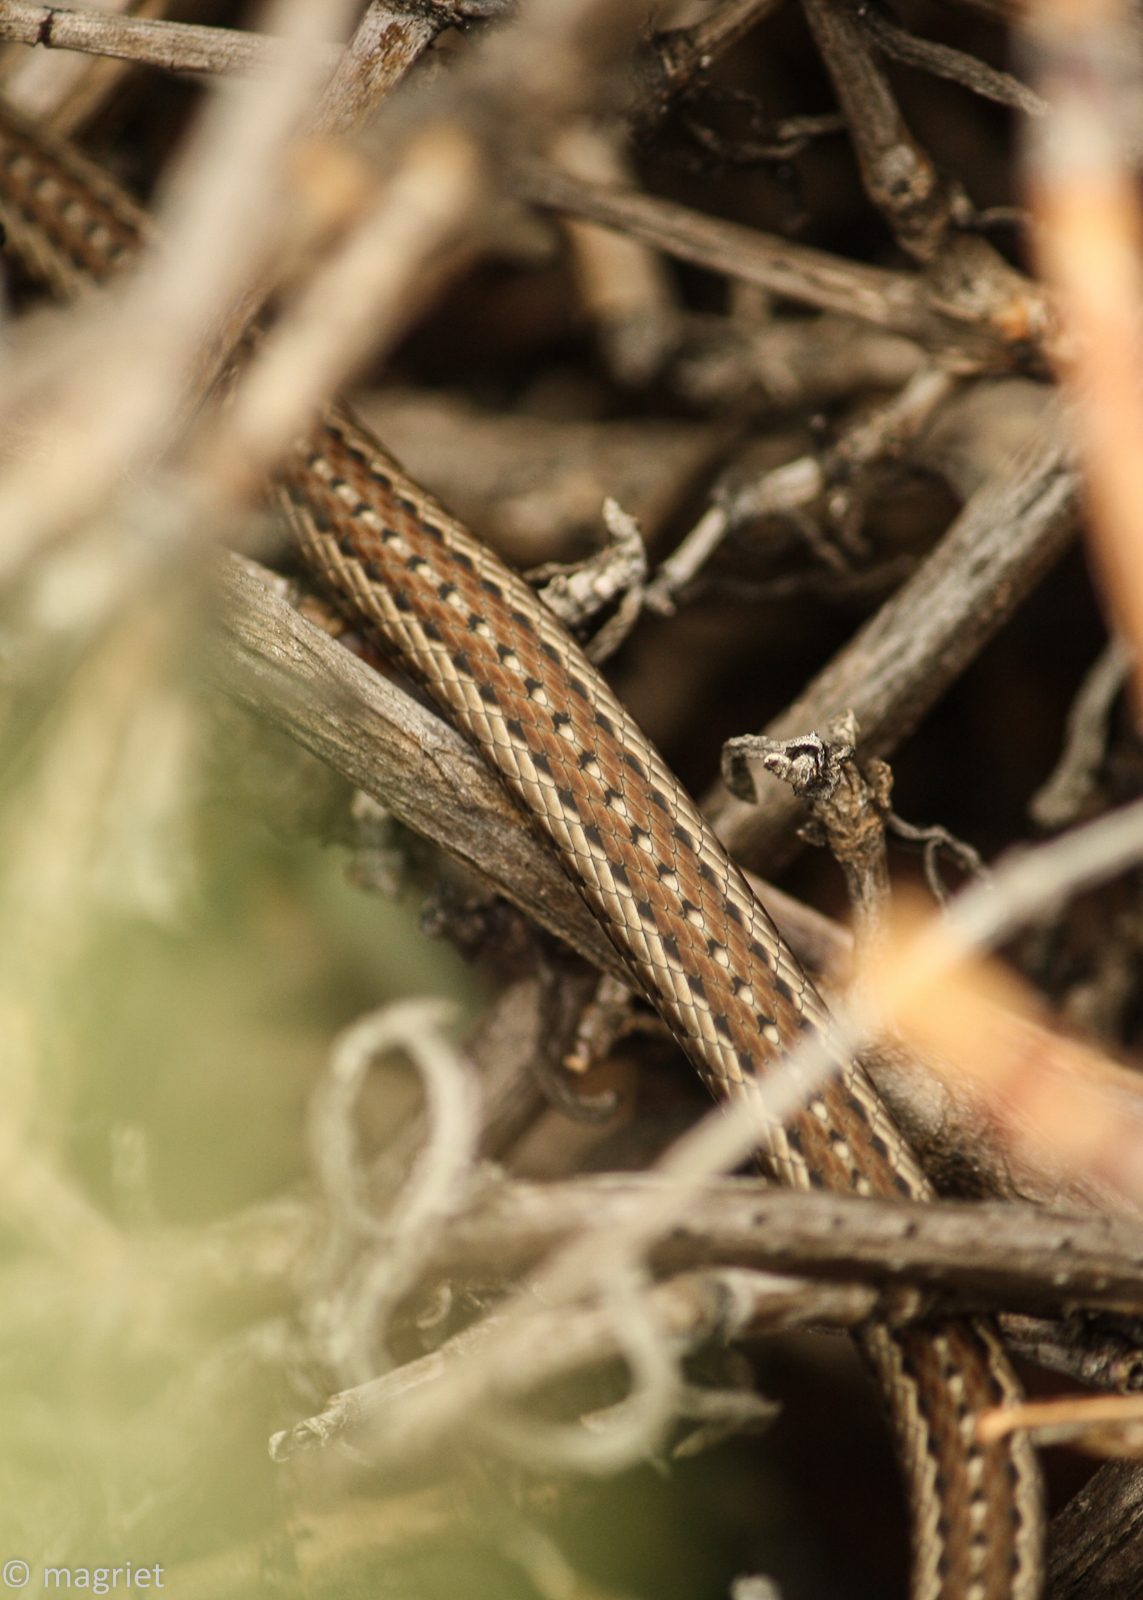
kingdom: Animalia
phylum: Chordata
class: Squamata
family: Psammophiidae
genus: Psammophis
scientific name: Psammophis notostictus
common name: Karoo sand snake
